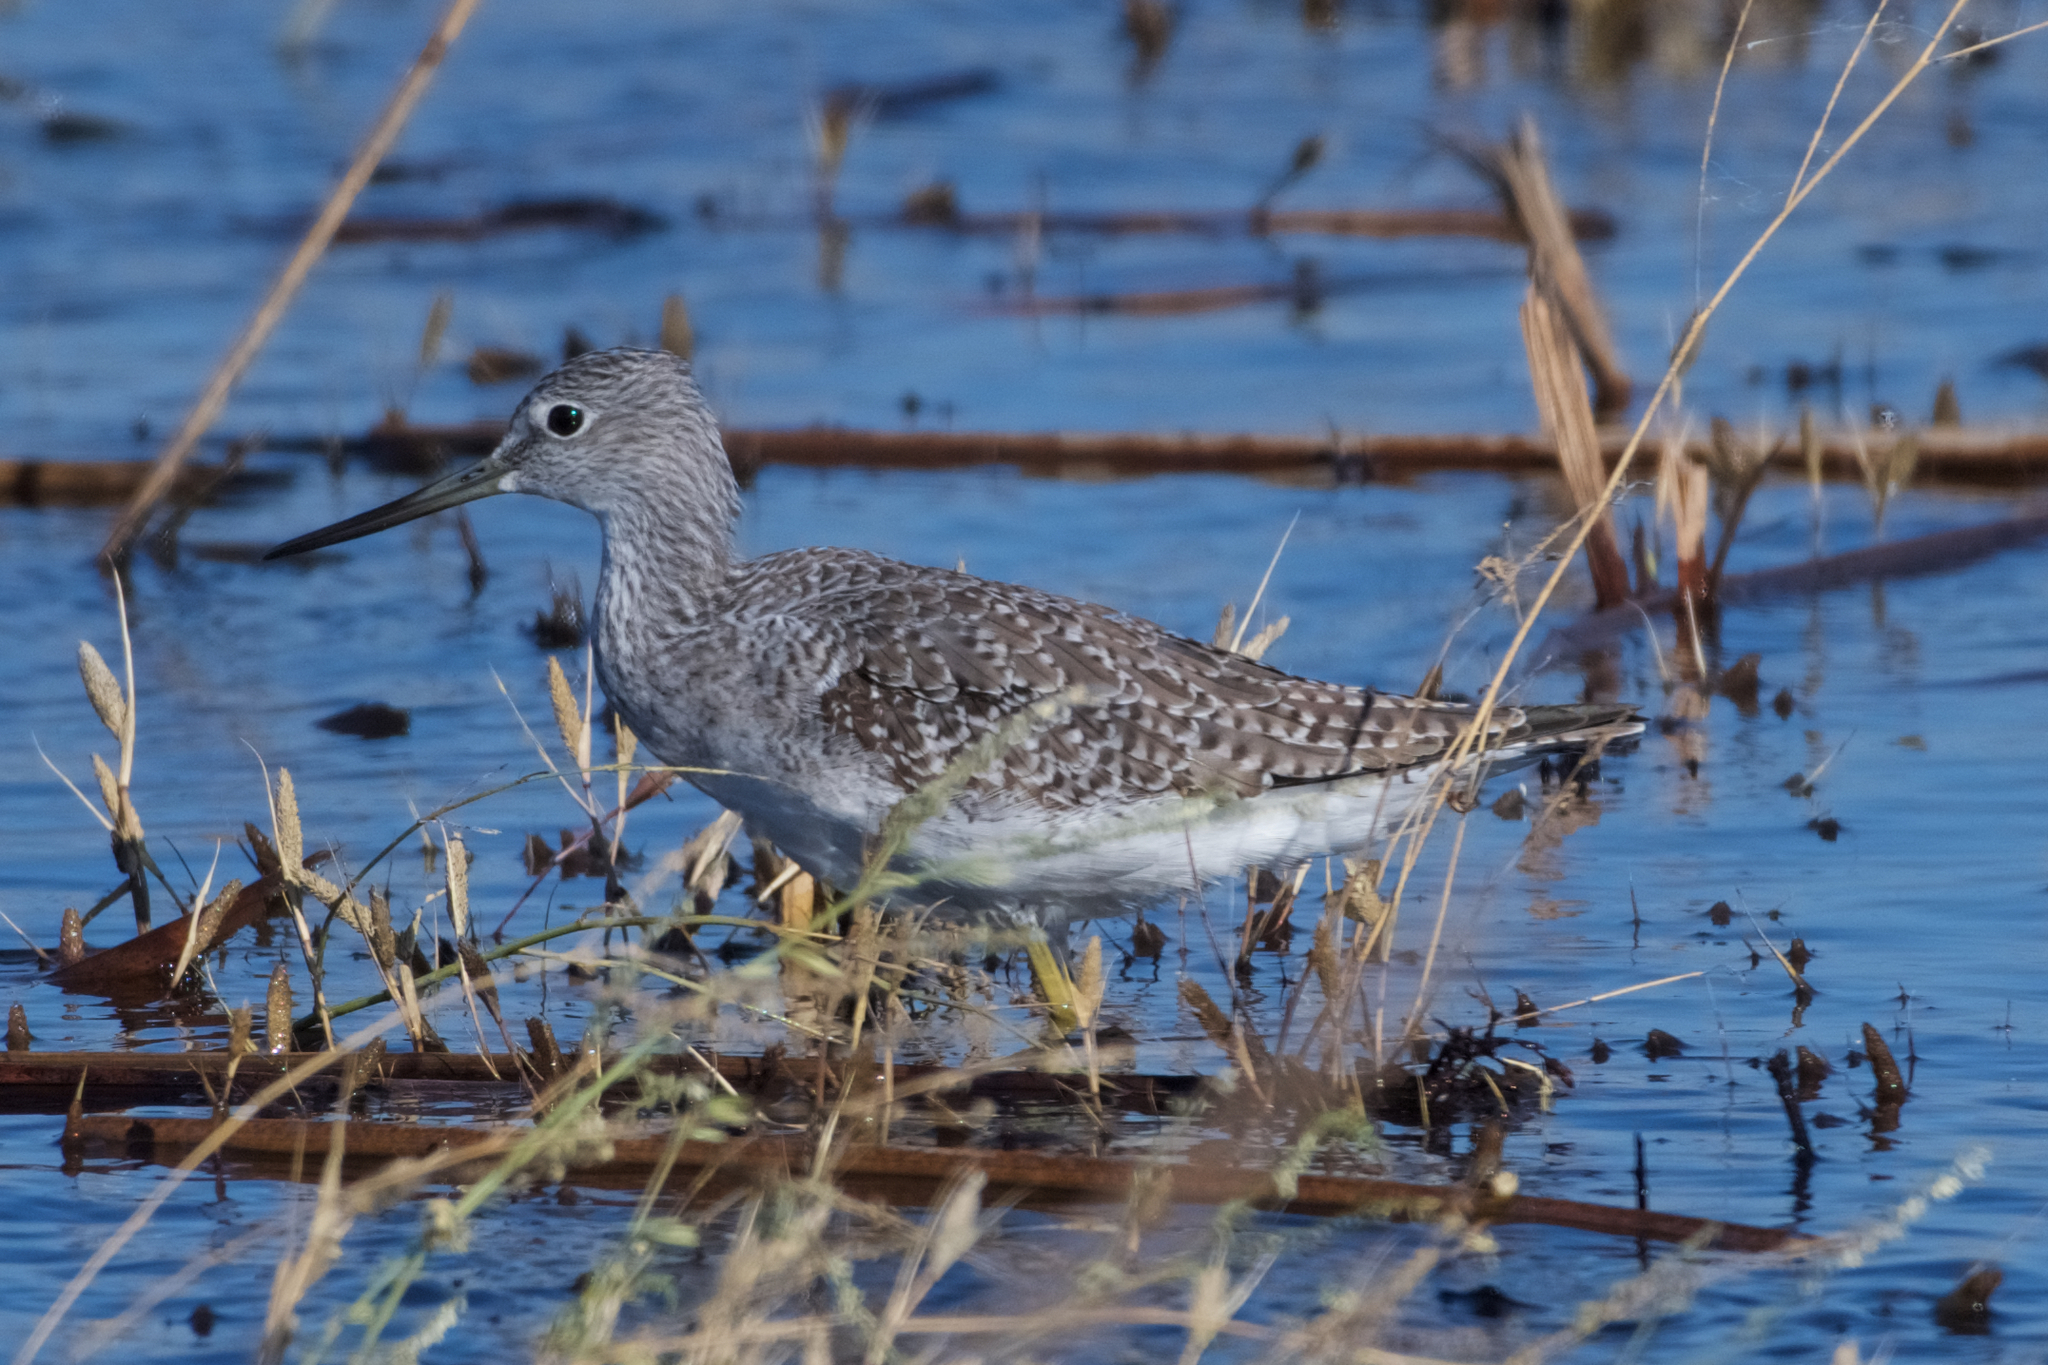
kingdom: Animalia
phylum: Chordata
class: Aves
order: Charadriiformes
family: Scolopacidae
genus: Tringa
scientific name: Tringa melanoleuca
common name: Greater yellowlegs
